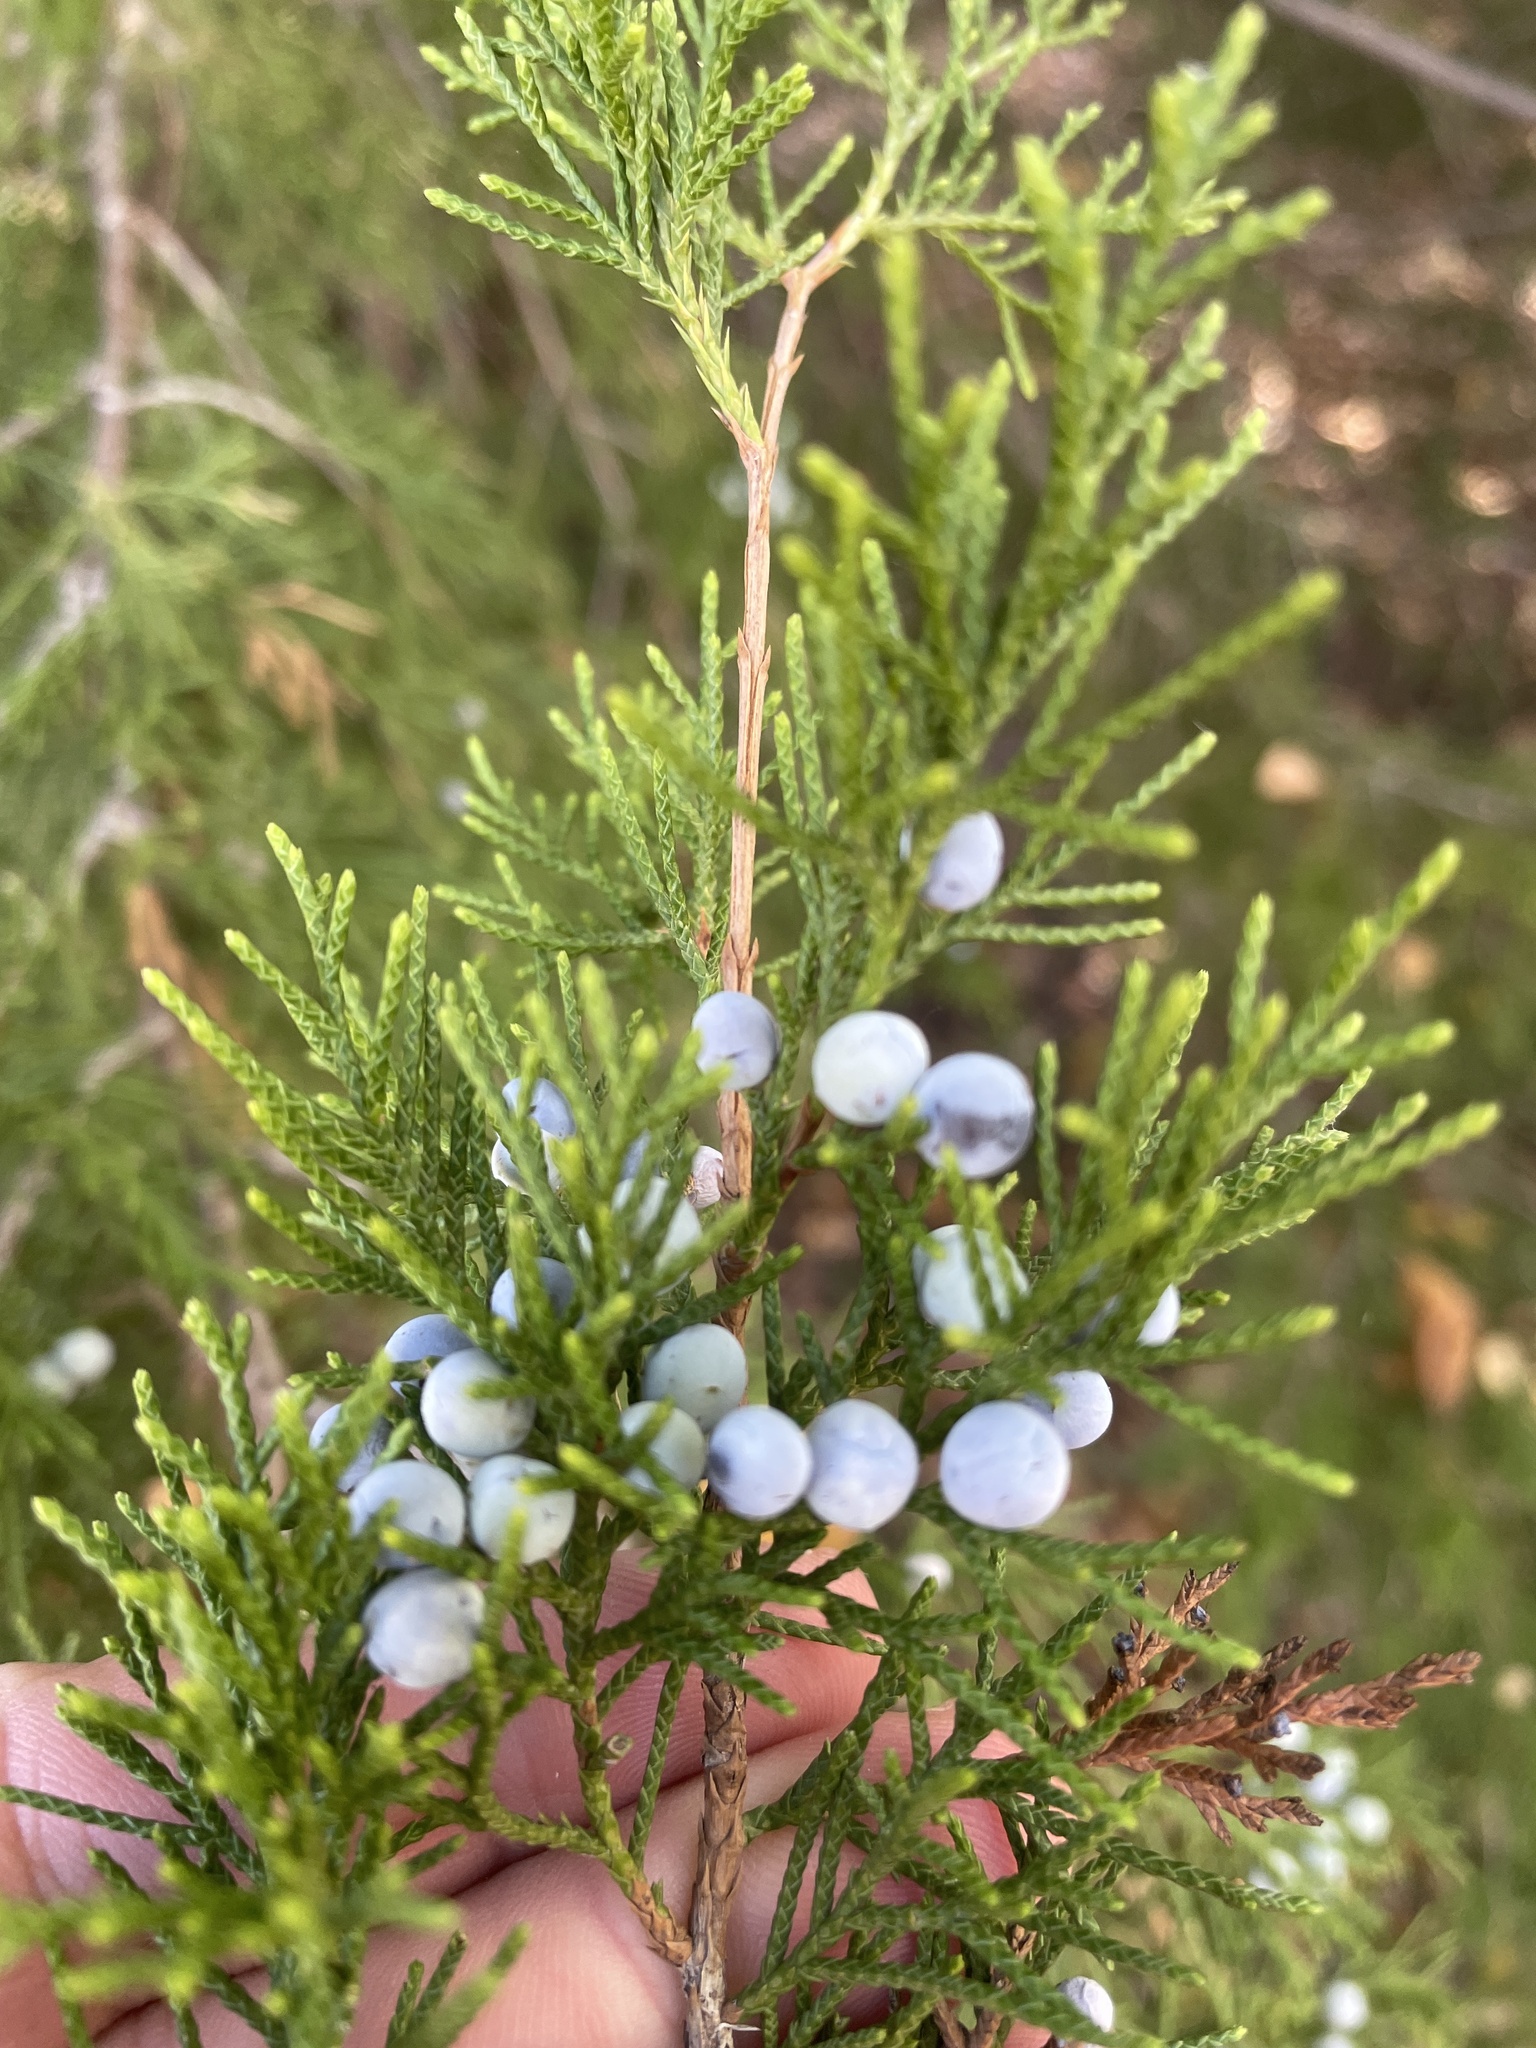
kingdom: Plantae
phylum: Tracheophyta
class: Pinopsida
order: Pinales
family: Cupressaceae
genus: Juniperus
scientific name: Juniperus virginiana
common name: Red juniper
